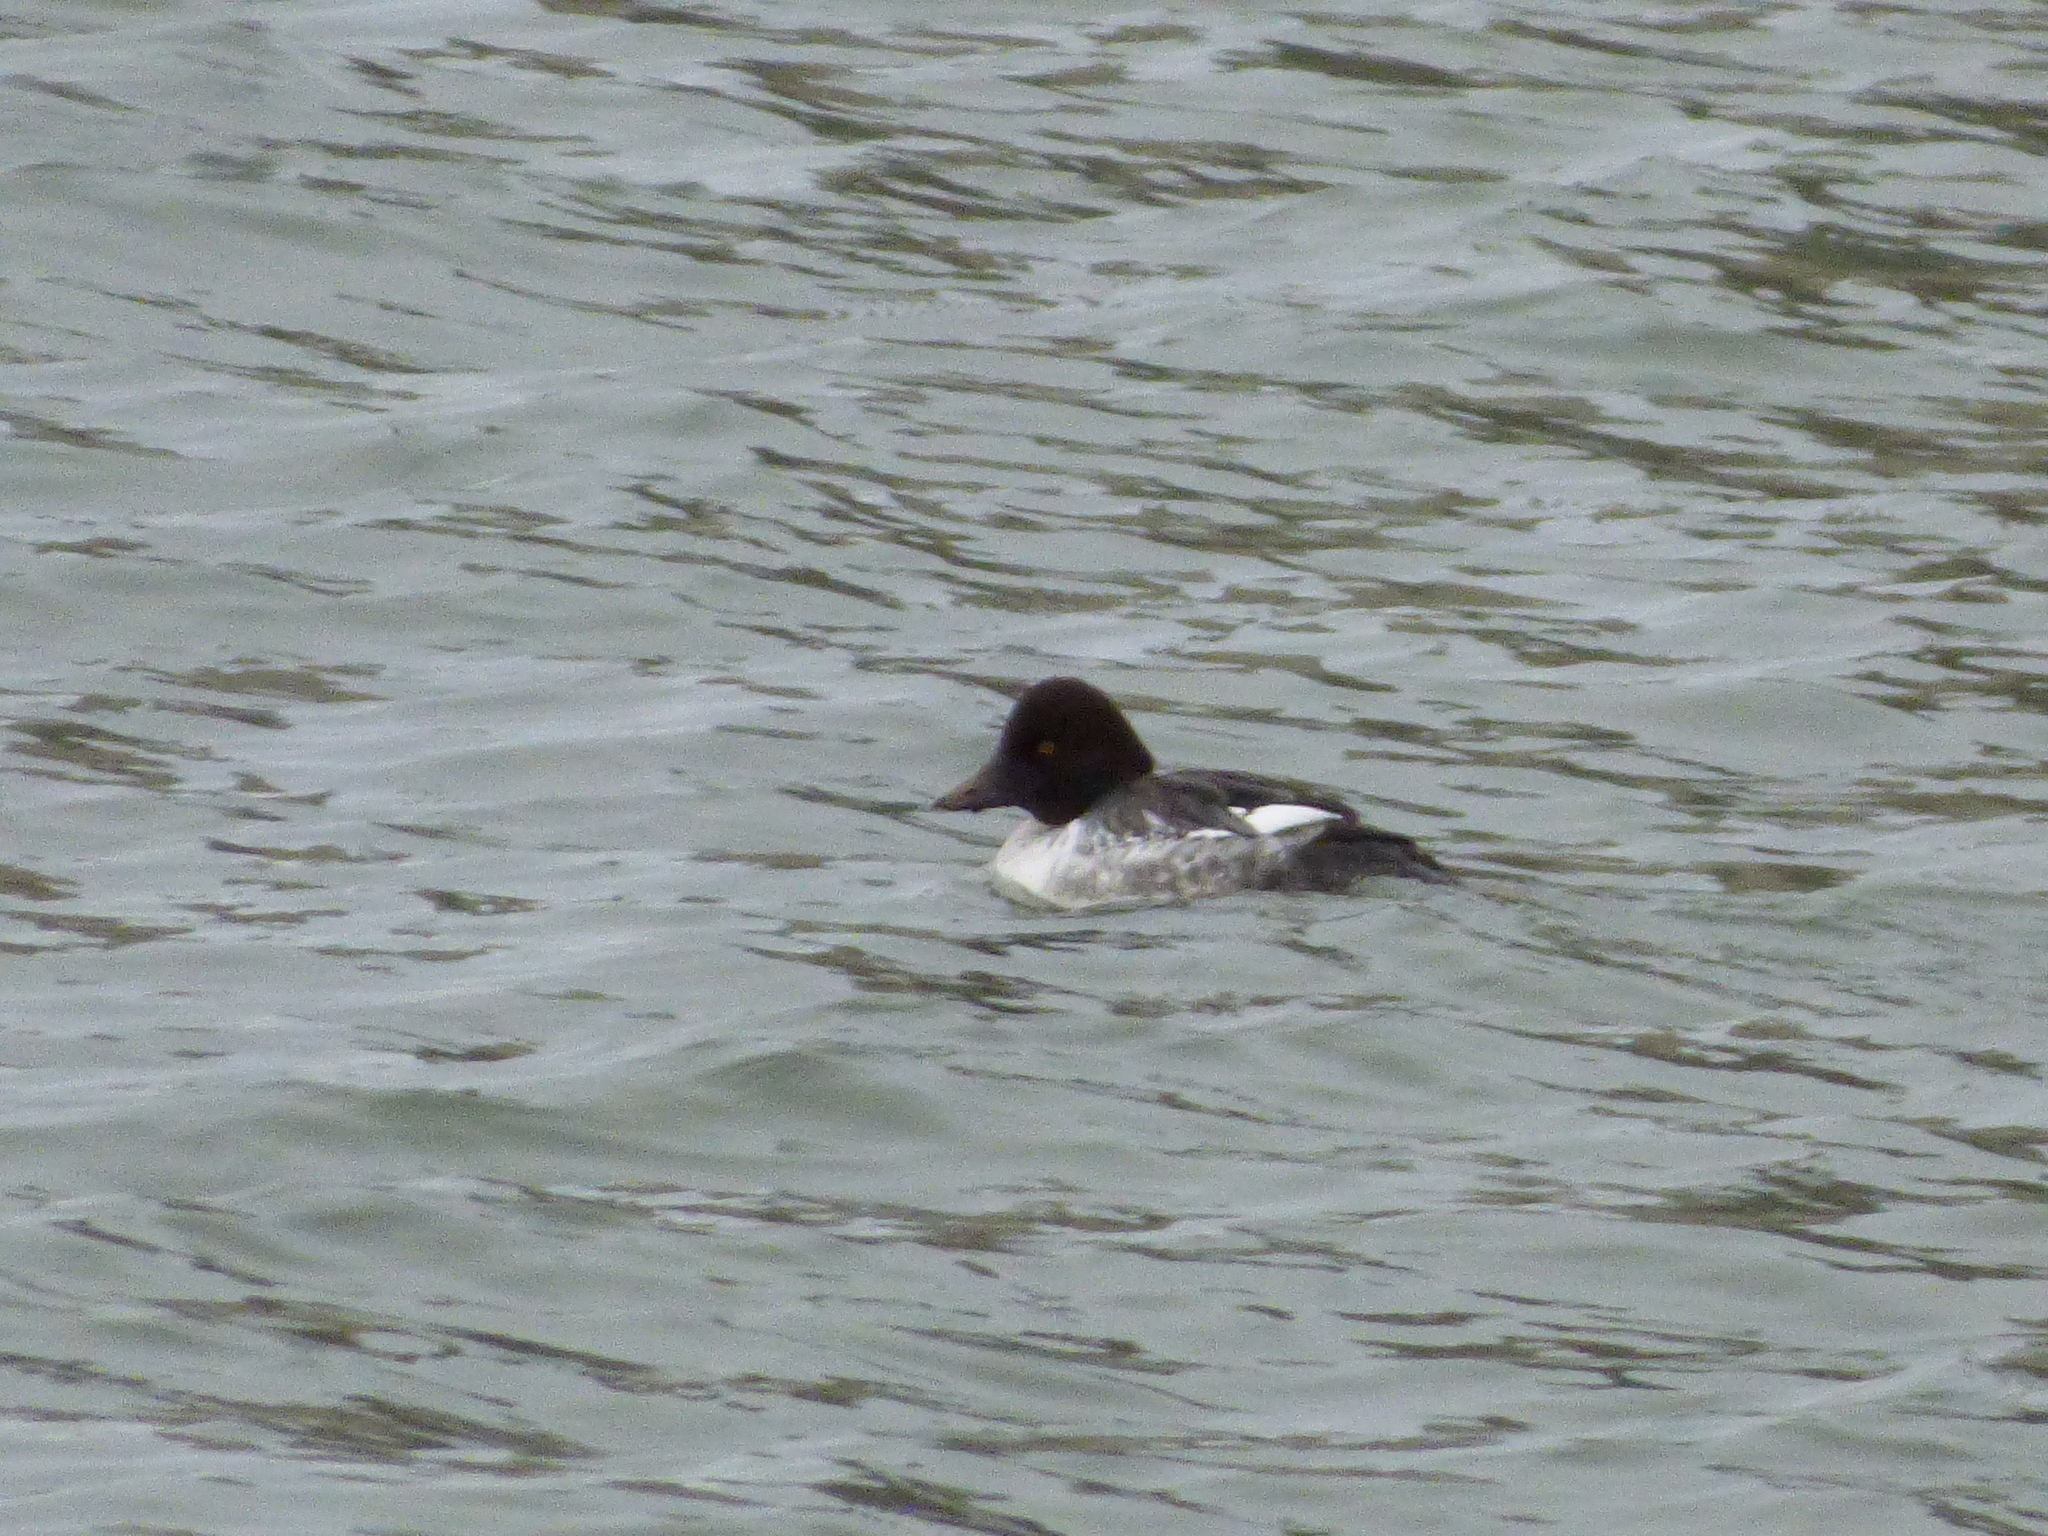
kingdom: Animalia
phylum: Chordata
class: Aves
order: Anseriformes
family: Anatidae
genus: Bucephala
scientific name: Bucephala clangula
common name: Common goldeneye
